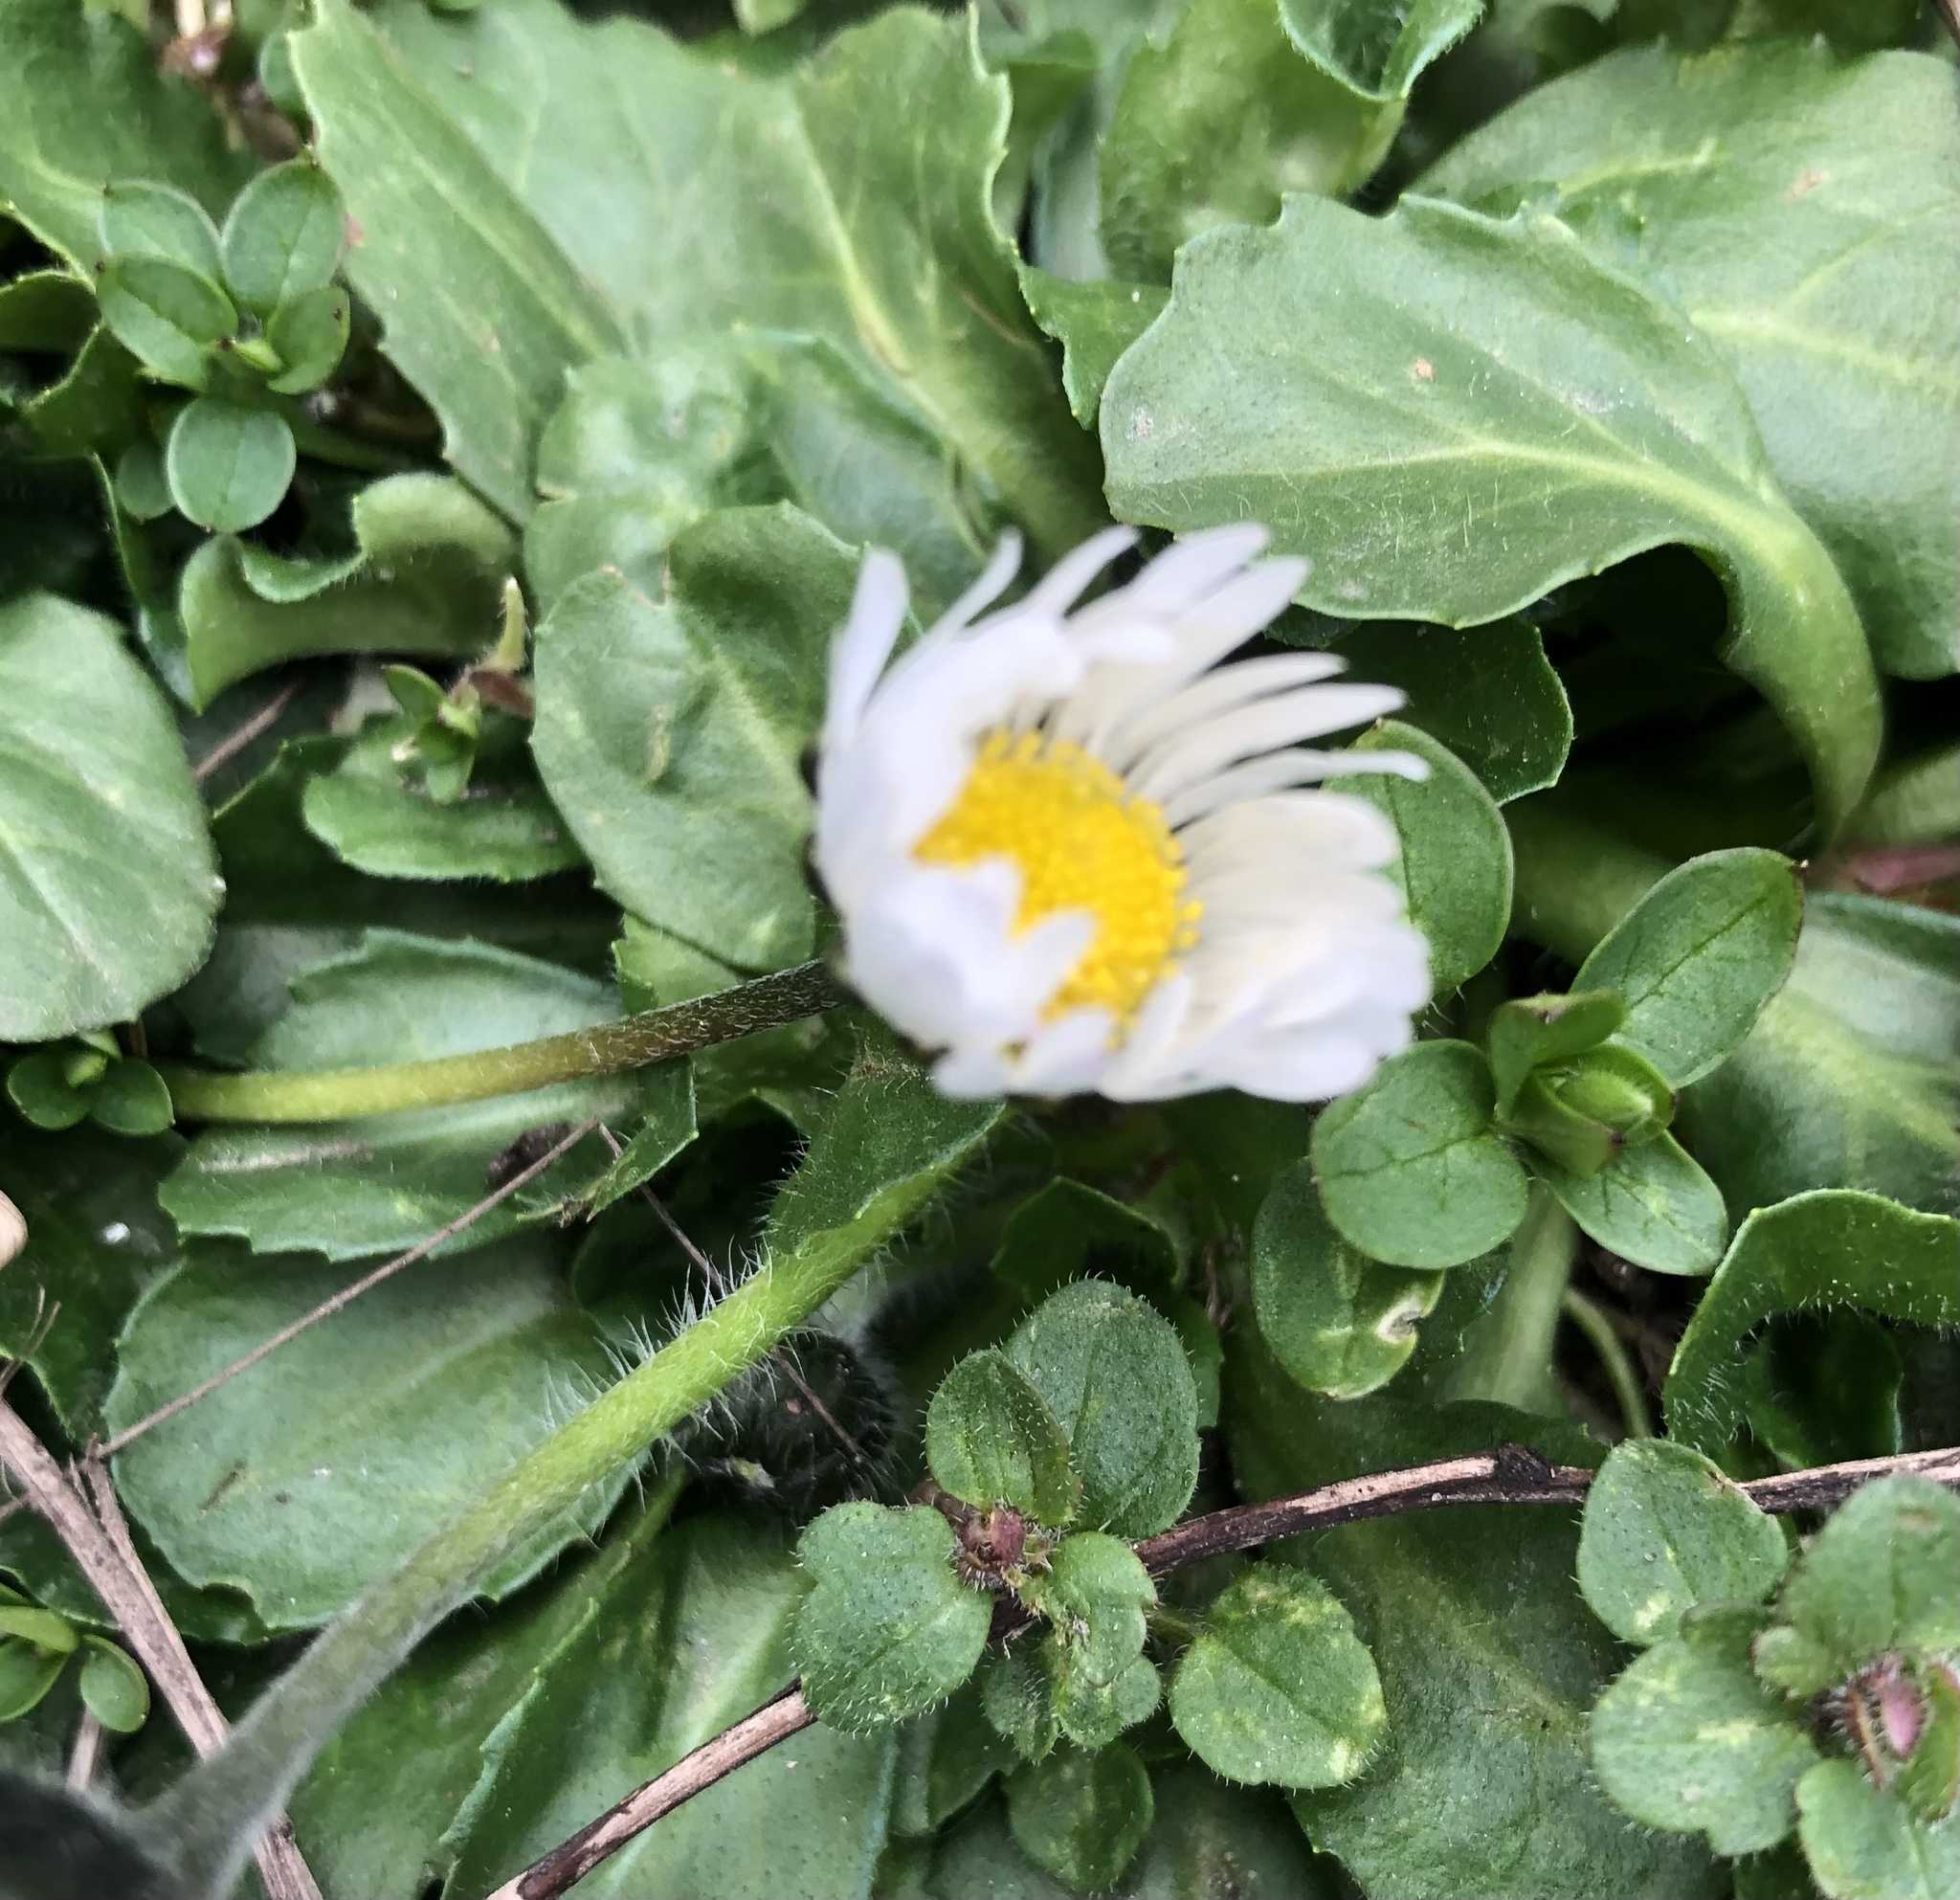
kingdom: Plantae
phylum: Tracheophyta
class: Magnoliopsida
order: Asterales
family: Asteraceae
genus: Bellis
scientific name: Bellis perennis
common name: Lawndaisy
